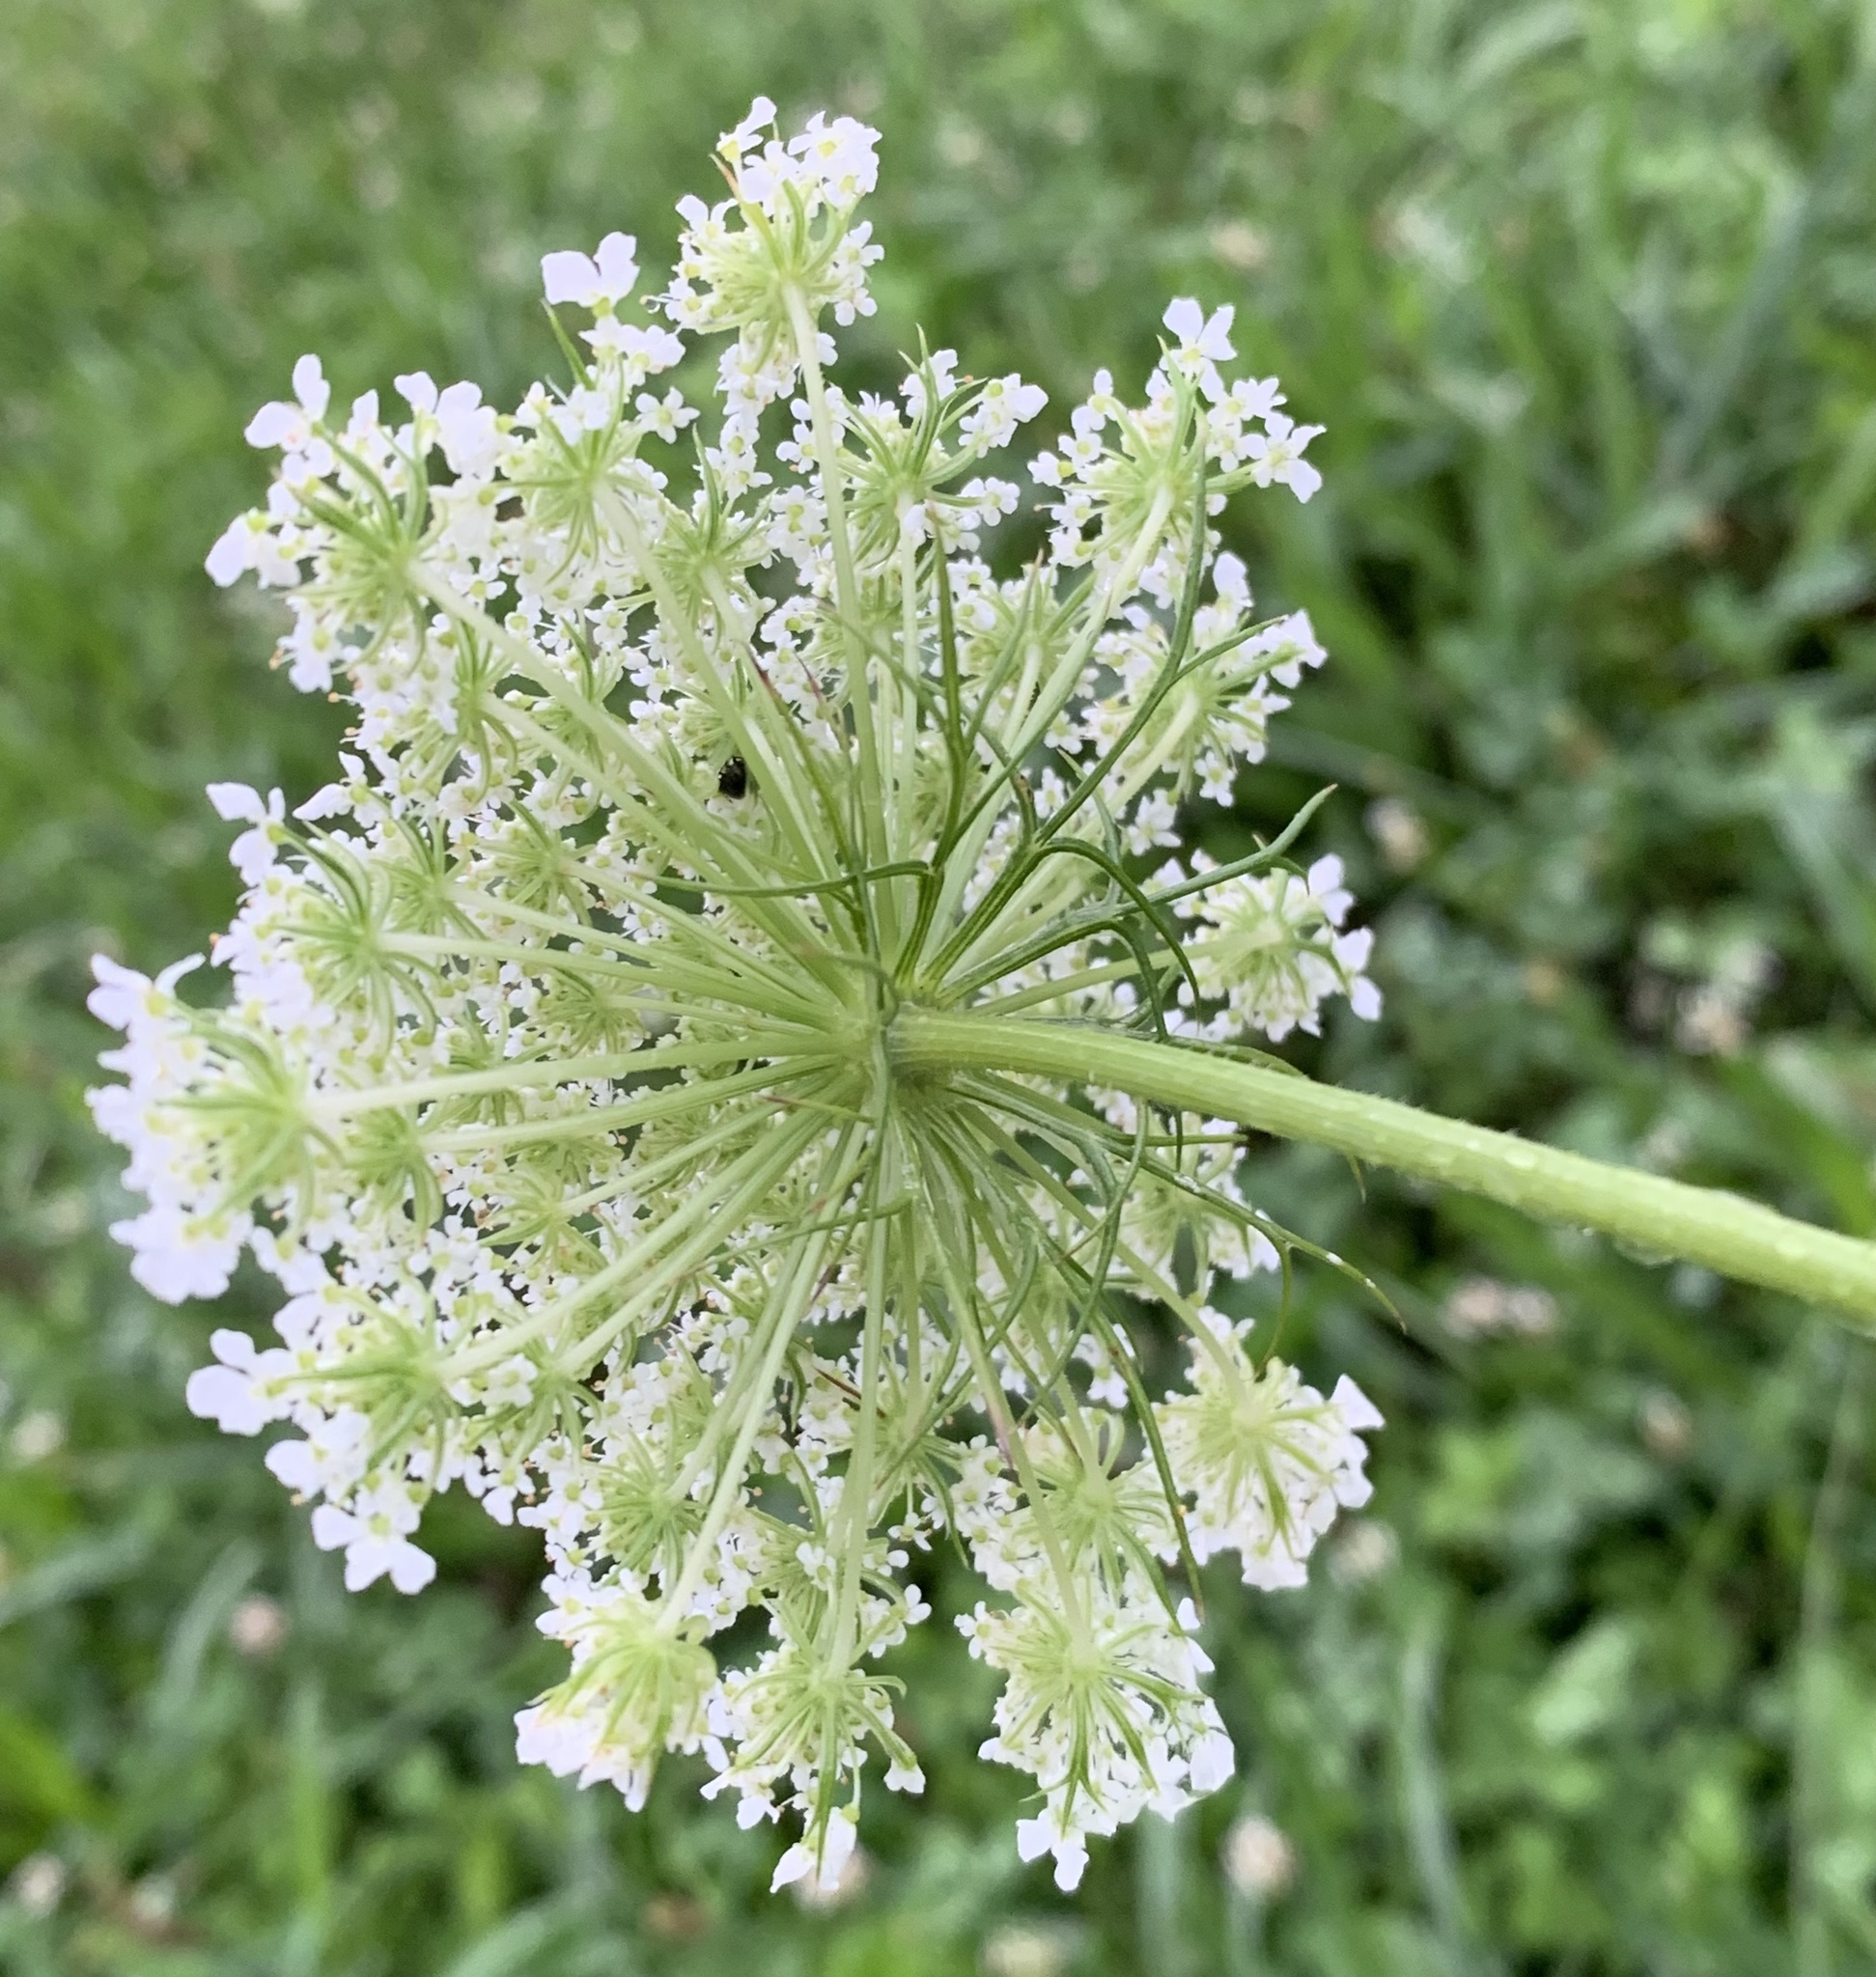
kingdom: Plantae
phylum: Tracheophyta
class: Magnoliopsida
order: Apiales
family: Apiaceae
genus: Daucus
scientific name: Daucus carota
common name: Wild carrot
